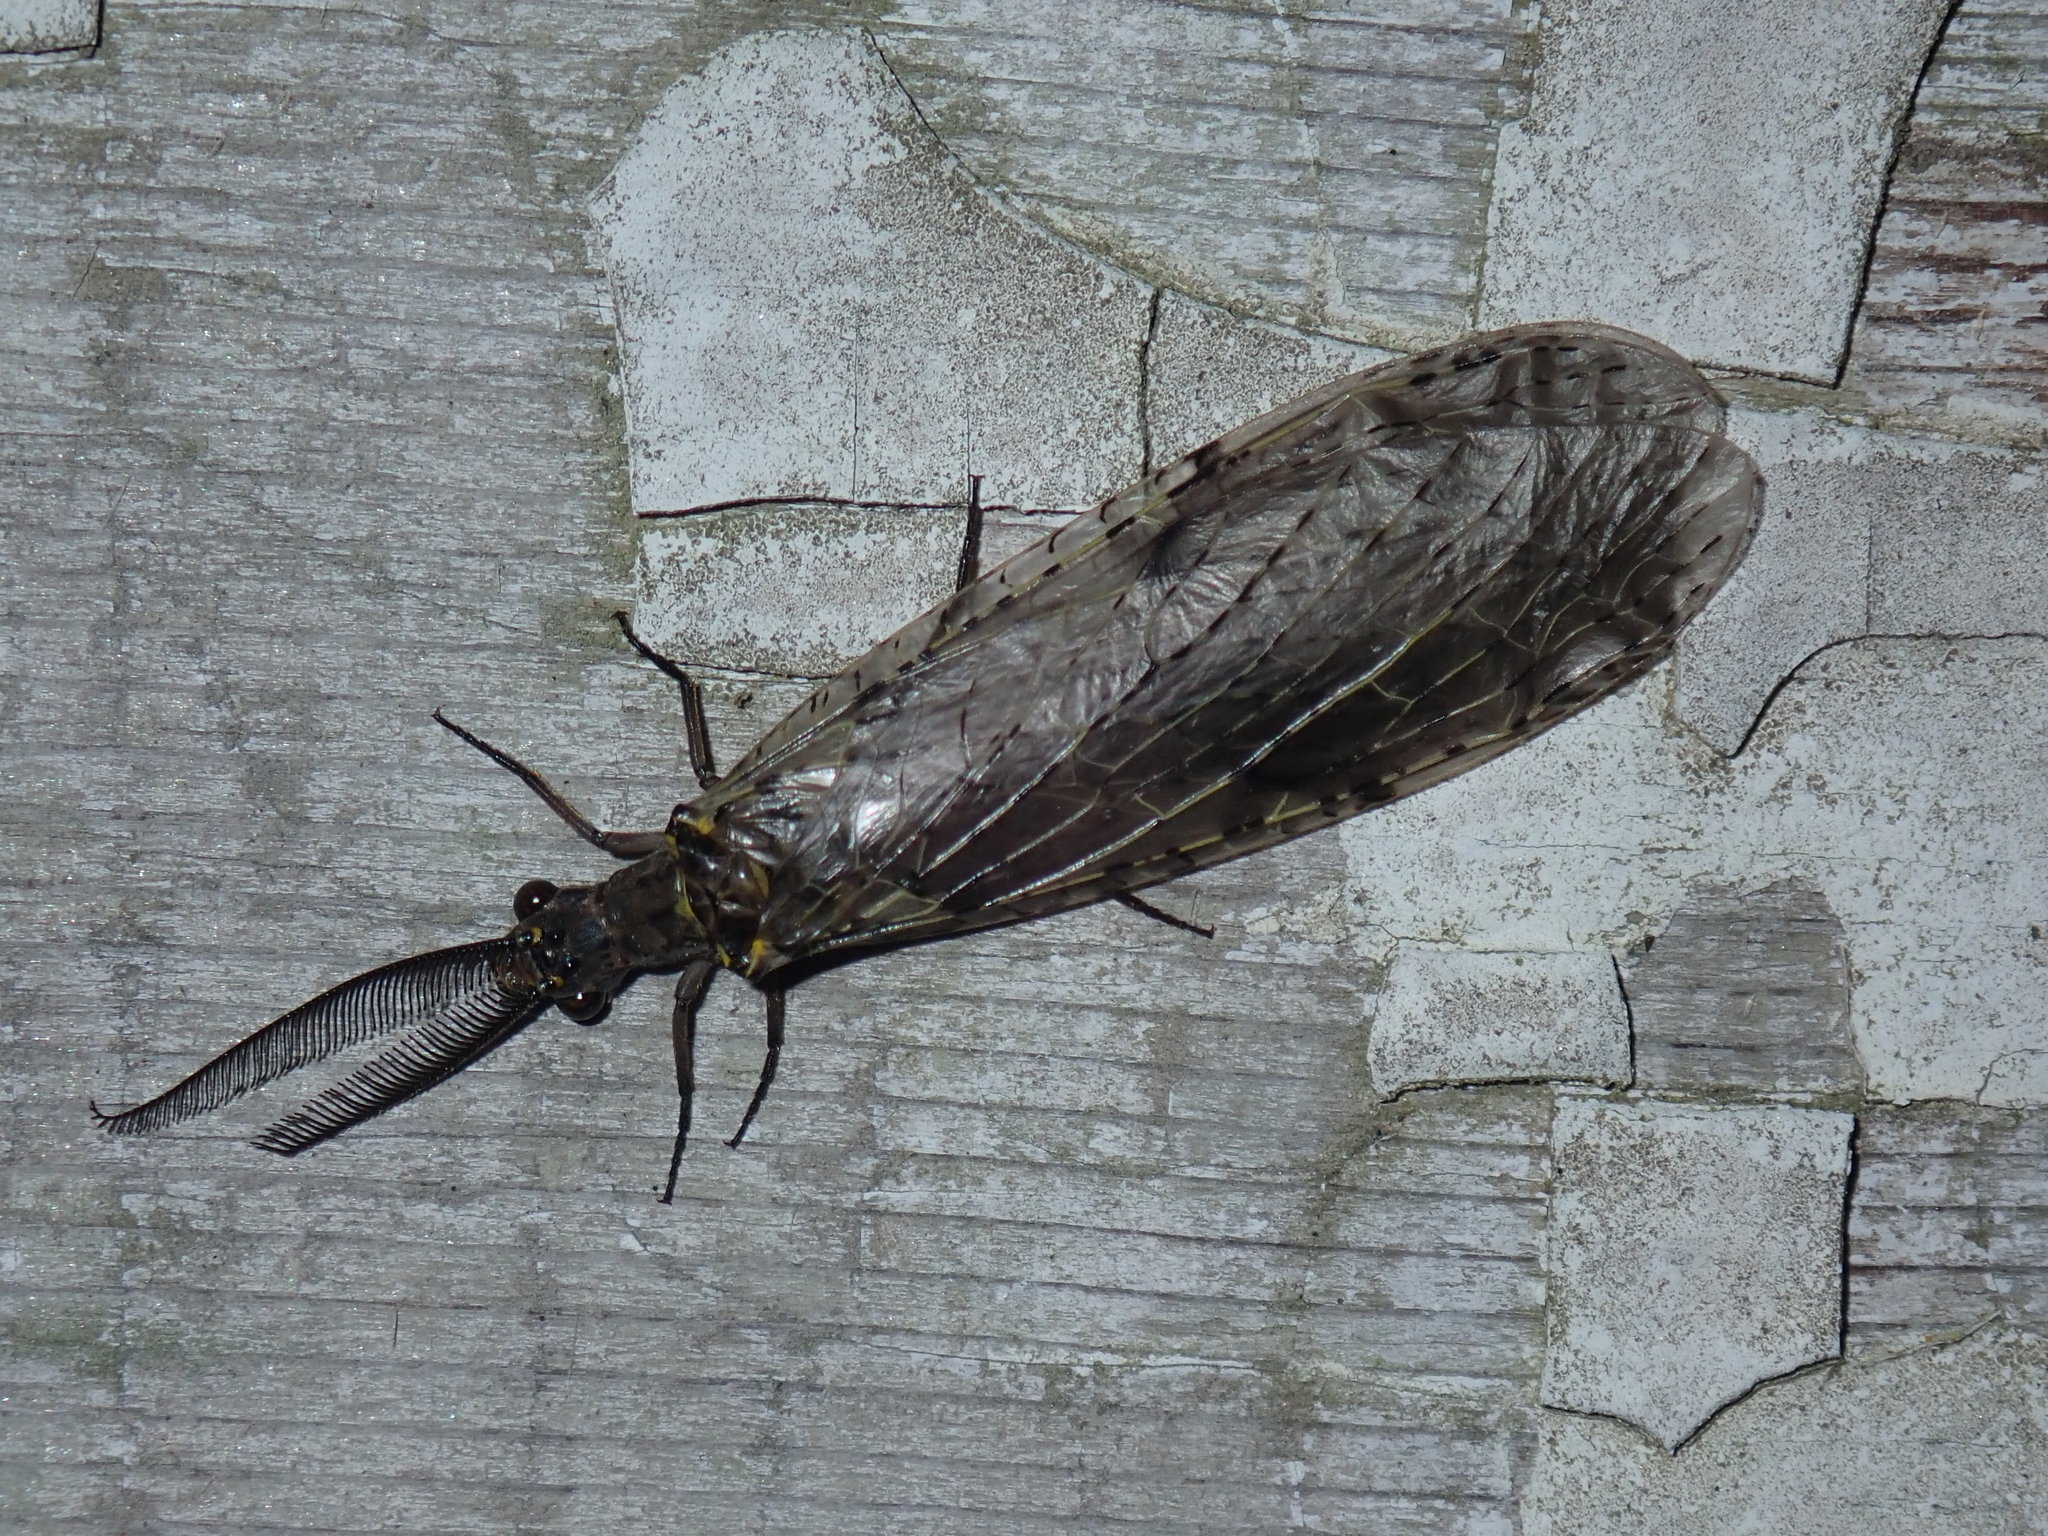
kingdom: Animalia
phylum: Arthropoda
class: Insecta
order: Megaloptera
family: Corydalidae
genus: Chauliodes
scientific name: Chauliodes rastricornis
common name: Spring fishfly
